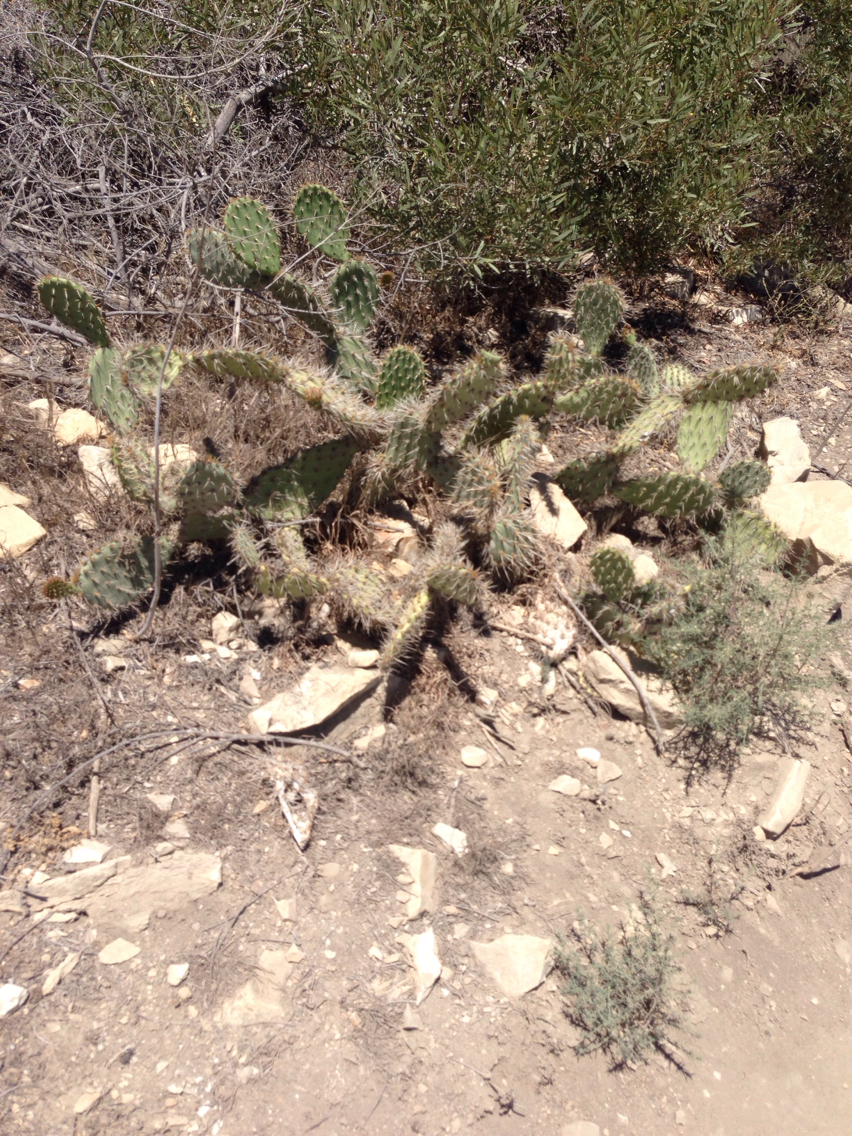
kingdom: Plantae
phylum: Tracheophyta
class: Magnoliopsida
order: Caryophyllales
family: Cactaceae
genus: Opuntia
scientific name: Opuntia littoralis
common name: Coastal prickly-pear
